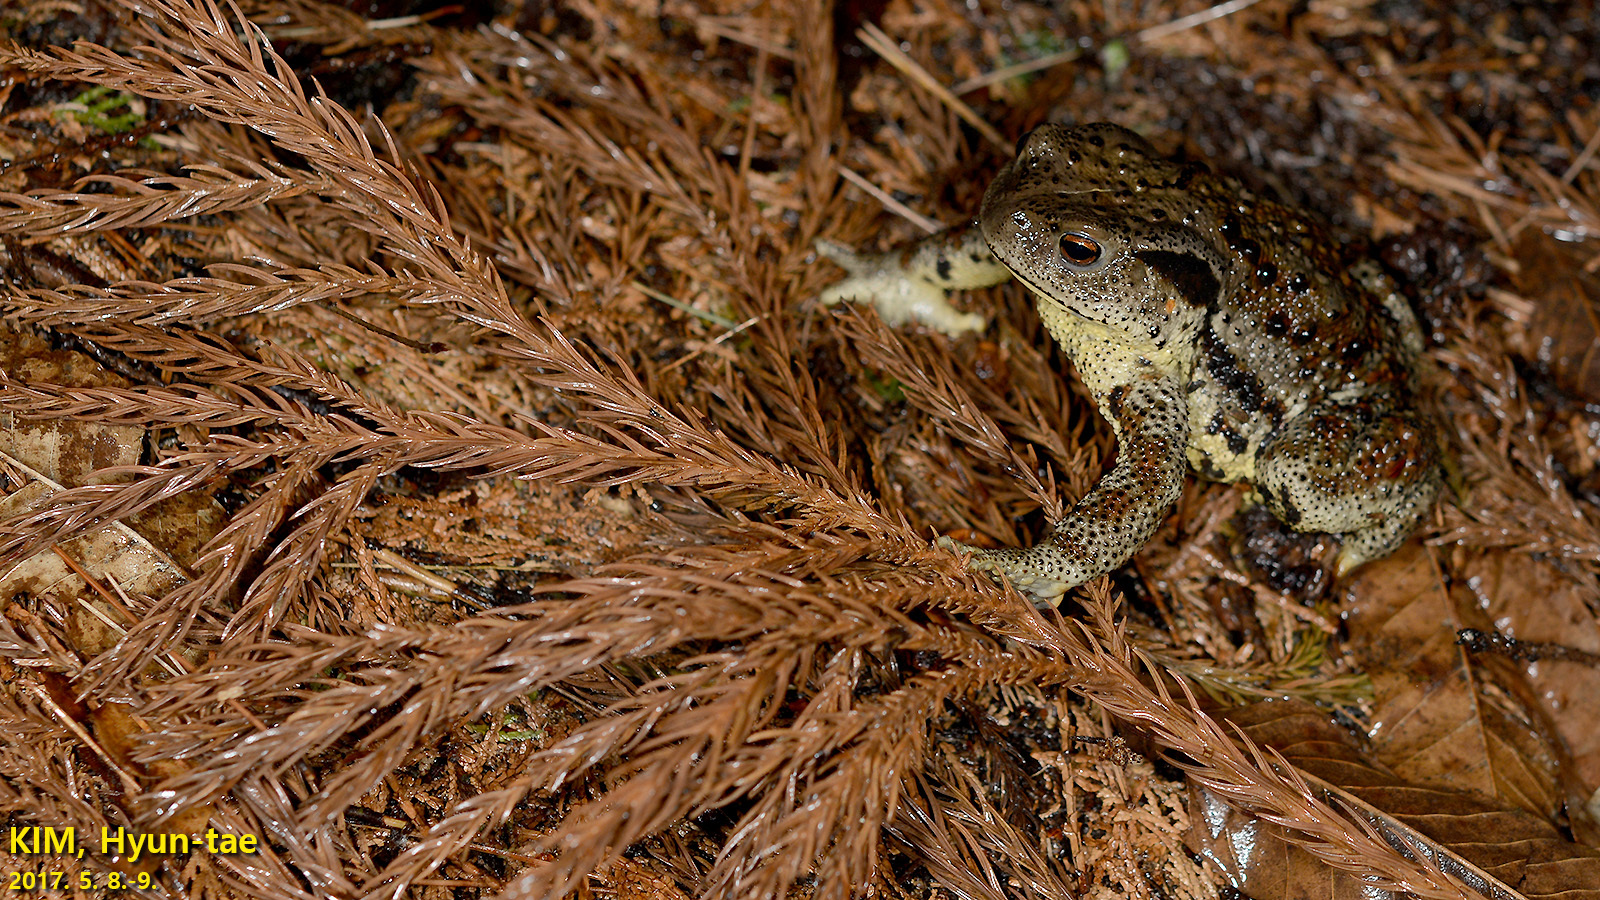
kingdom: Animalia
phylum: Chordata
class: Amphibia
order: Anura
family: Bufonidae
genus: Bufo
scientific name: Bufo gargarizans
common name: Asiatic toad
